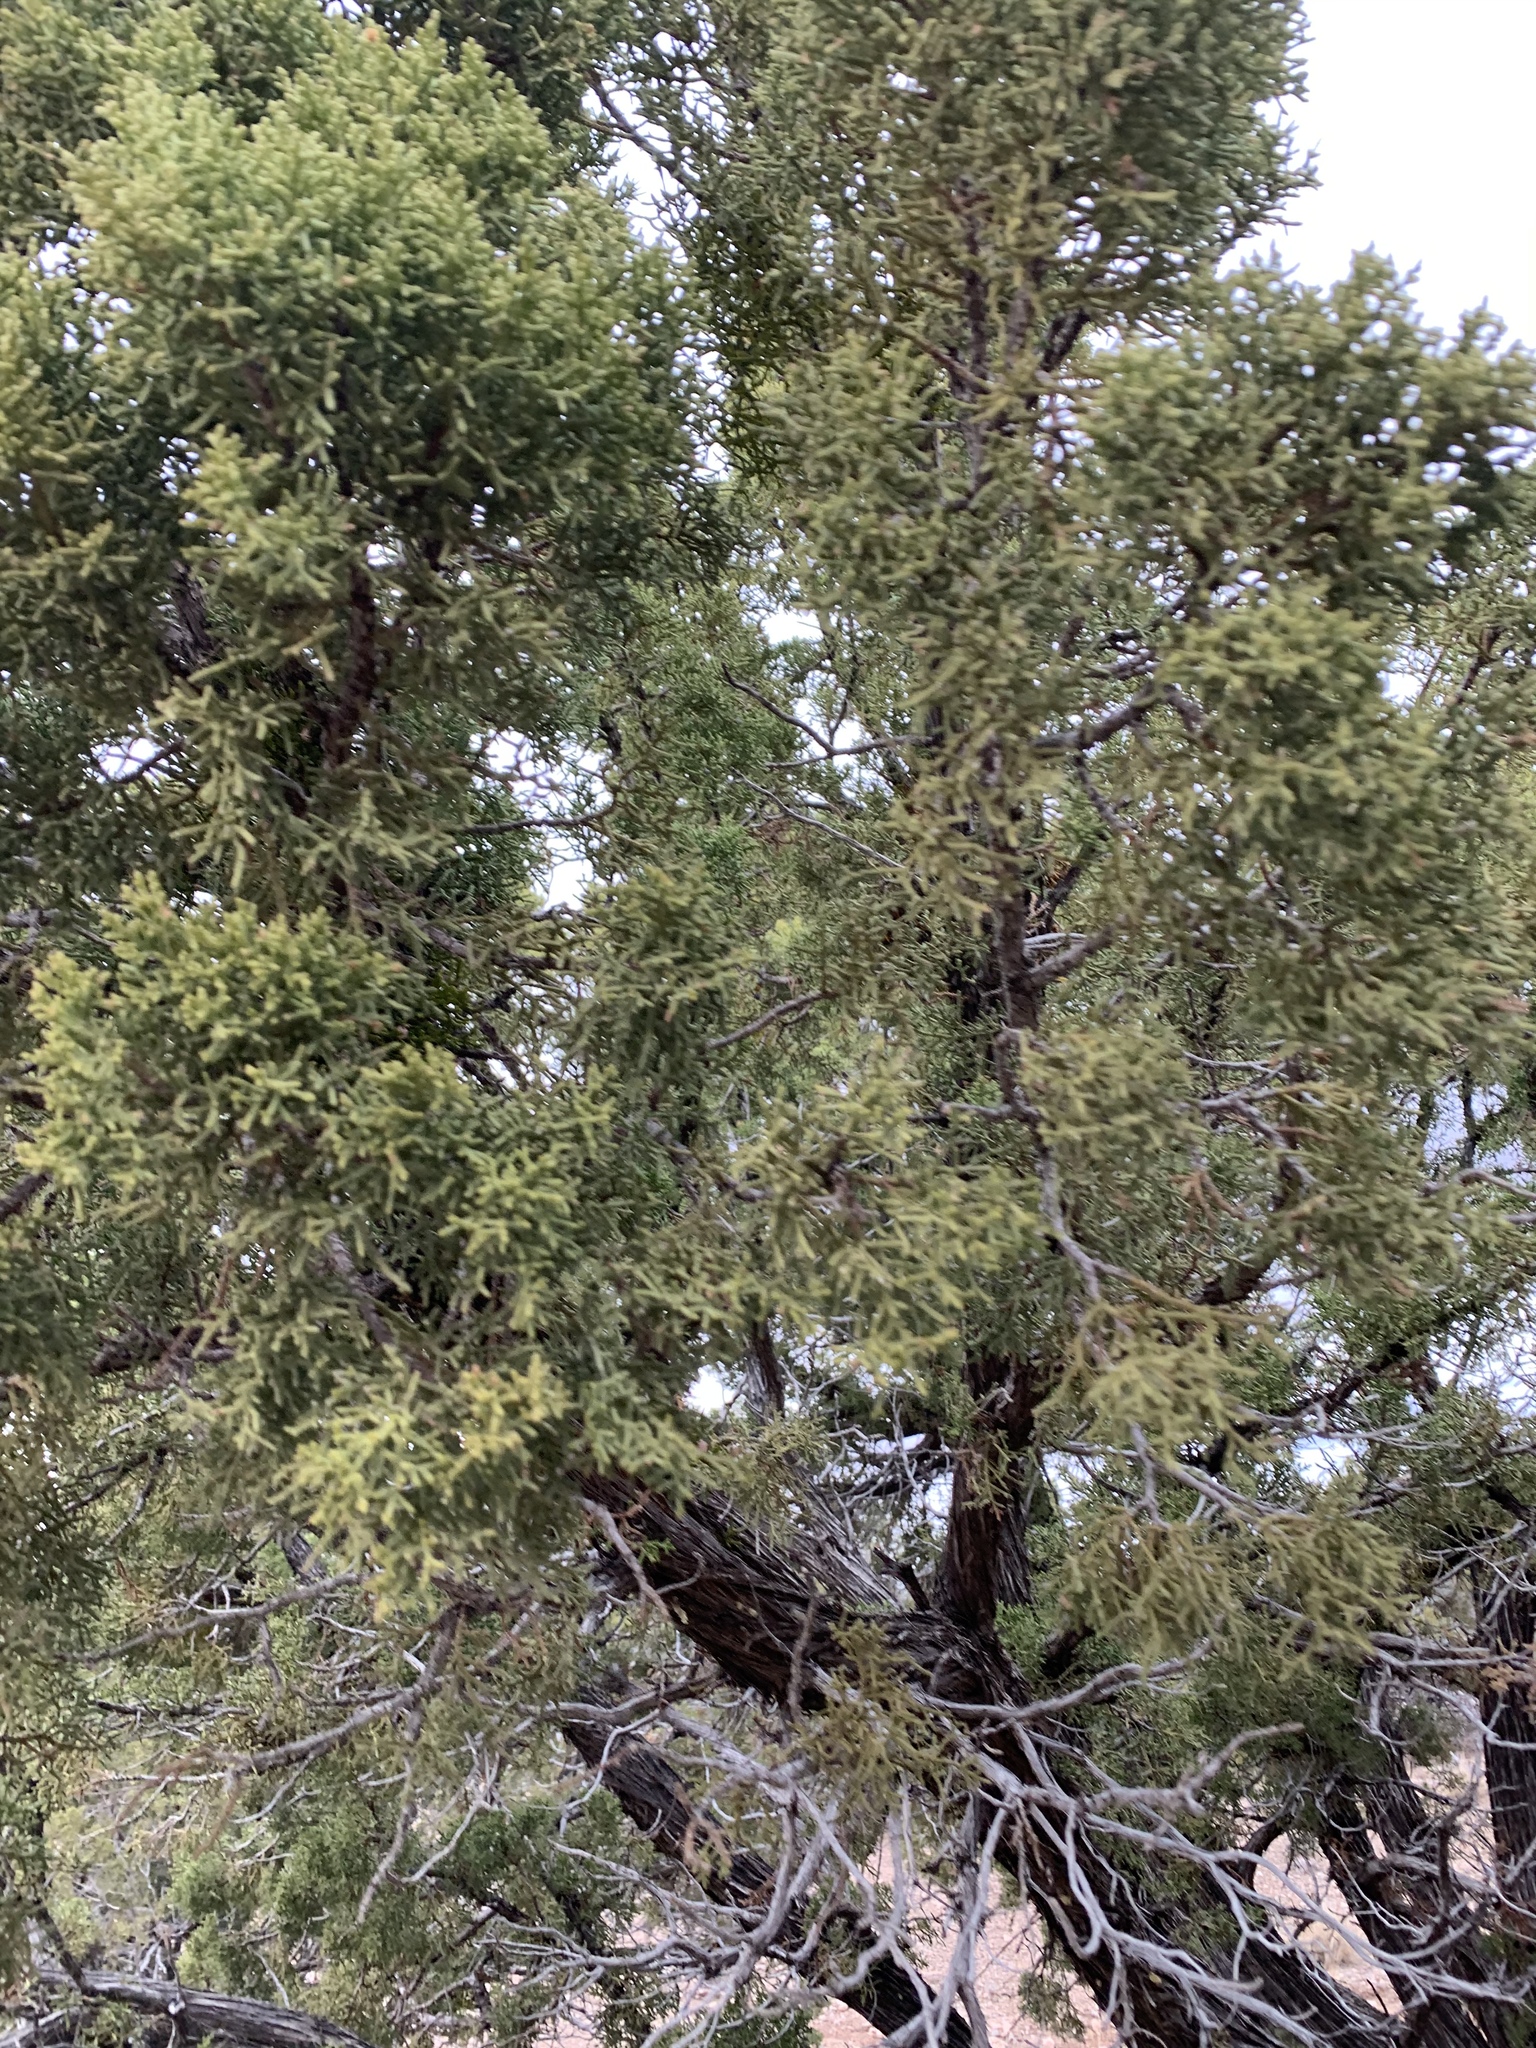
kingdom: Plantae
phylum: Tracheophyta
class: Pinopsida
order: Pinales
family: Cupressaceae
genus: Juniperus
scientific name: Juniperus monosperma
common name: One-seed juniper
